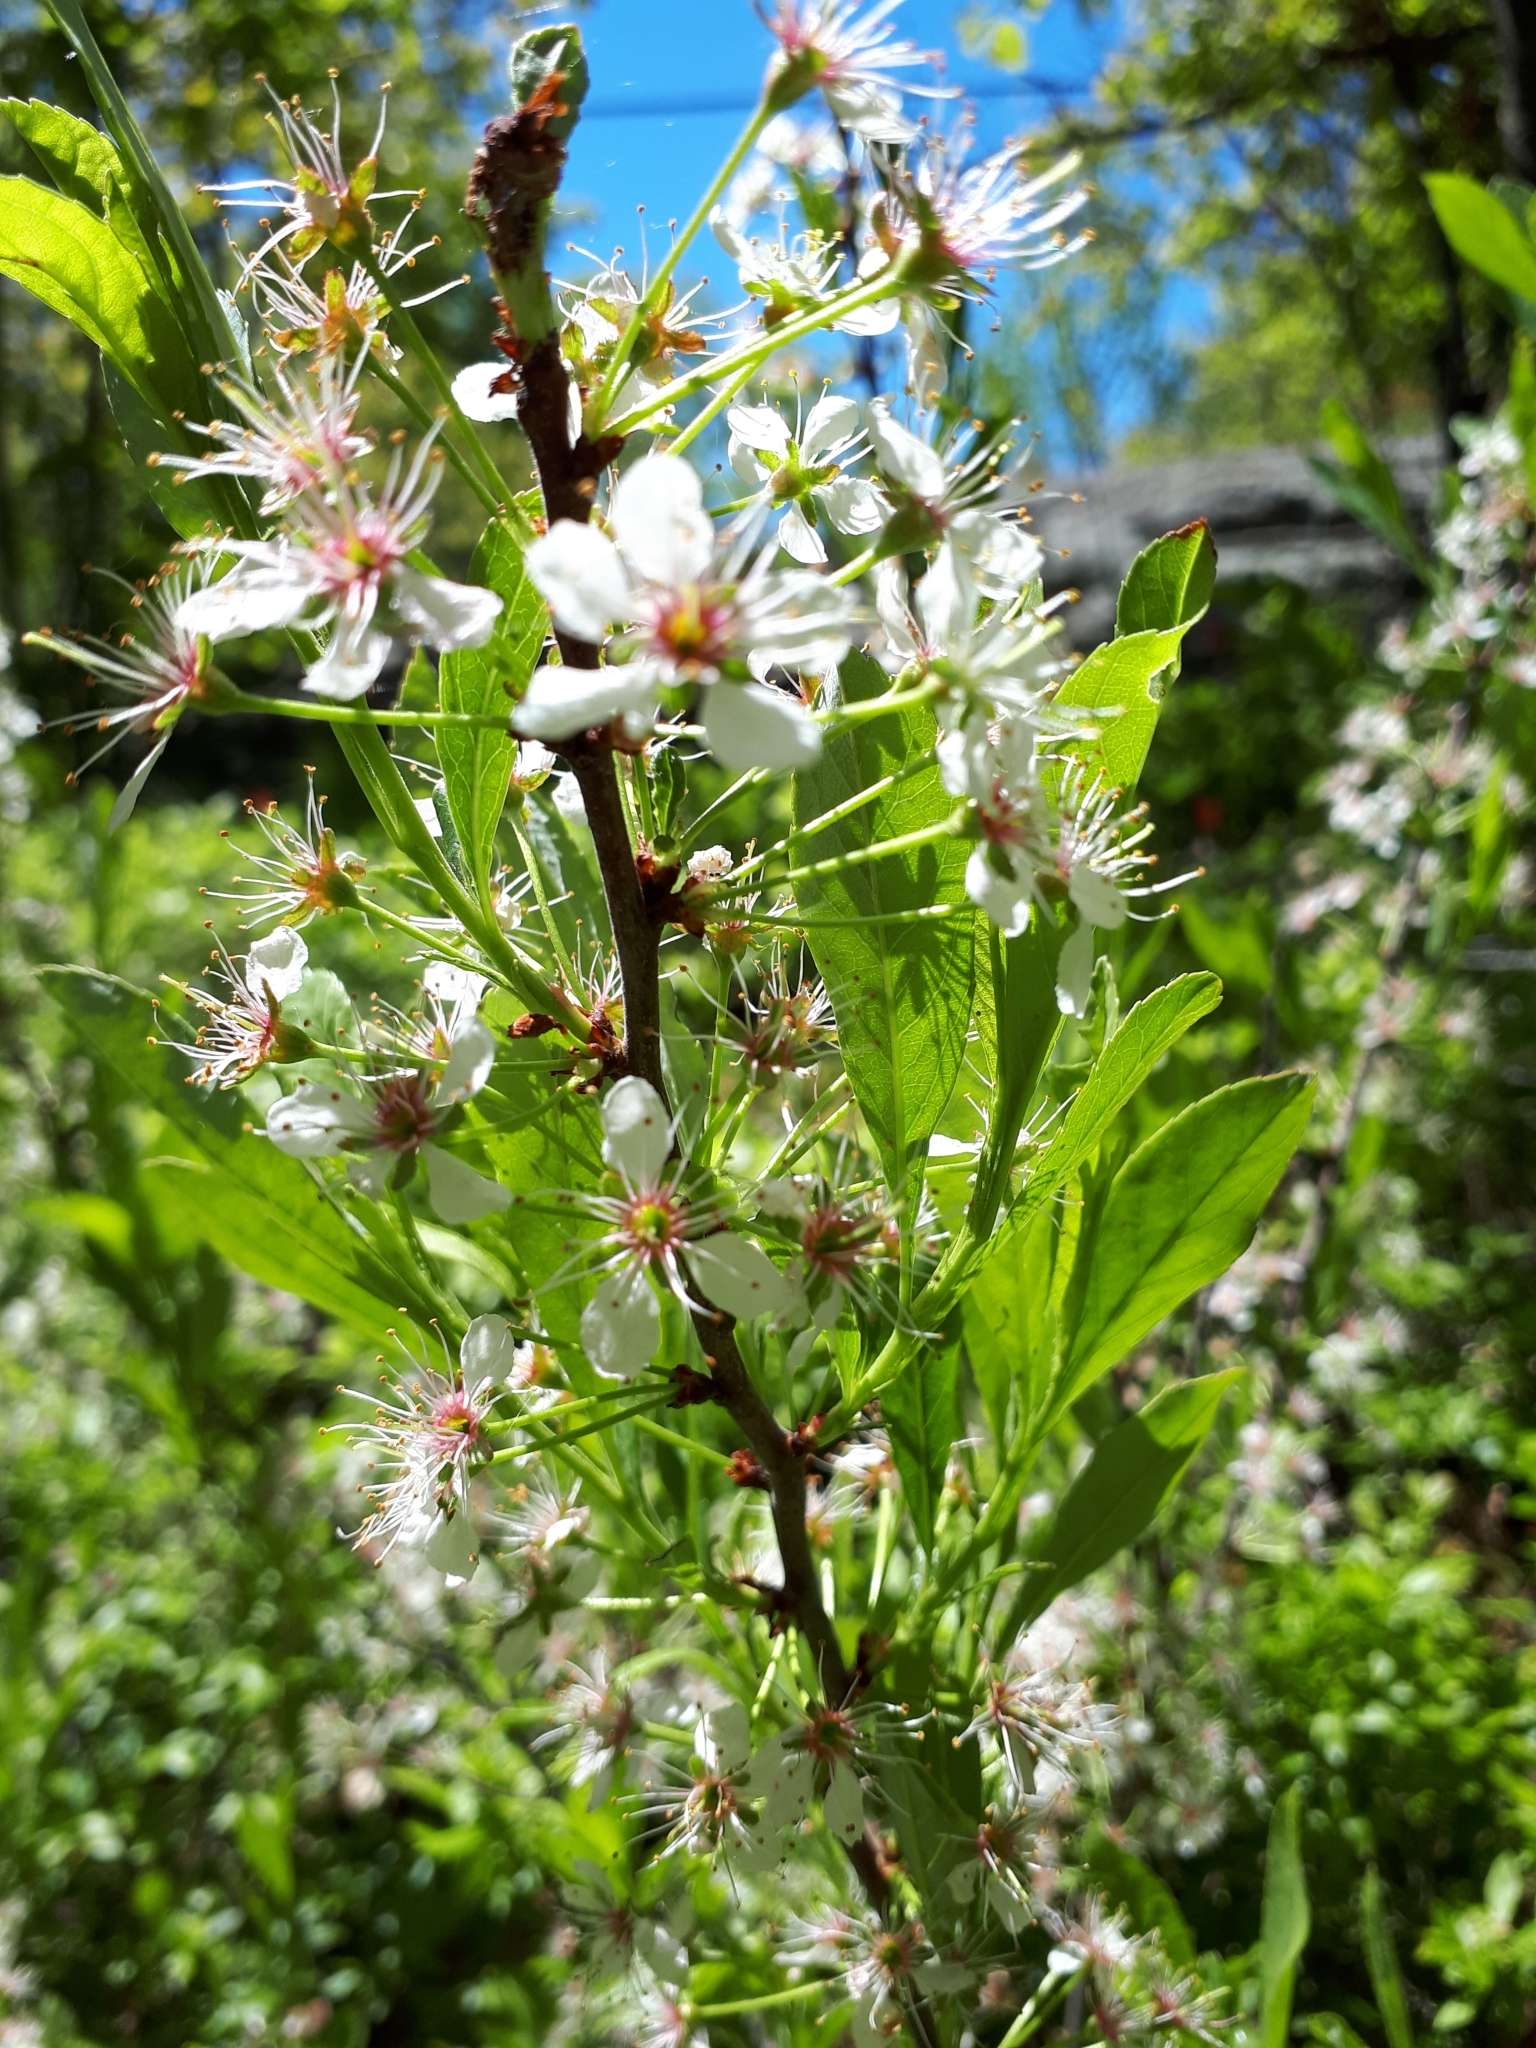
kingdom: Plantae
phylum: Tracheophyta
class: Magnoliopsida
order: Rosales
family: Rosaceae
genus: Prunus
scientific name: Prunus pumila
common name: Dwarf cherry
